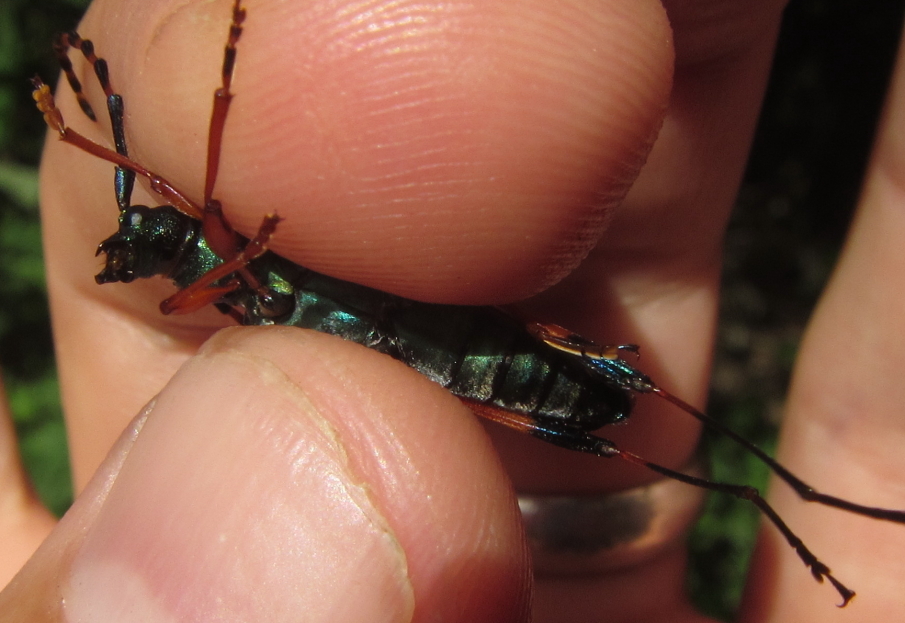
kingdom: Animalia
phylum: Arthropoda
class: Insecta
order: Coleoptera
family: Cerambycidae
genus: Litopus
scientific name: Litopus latipes
